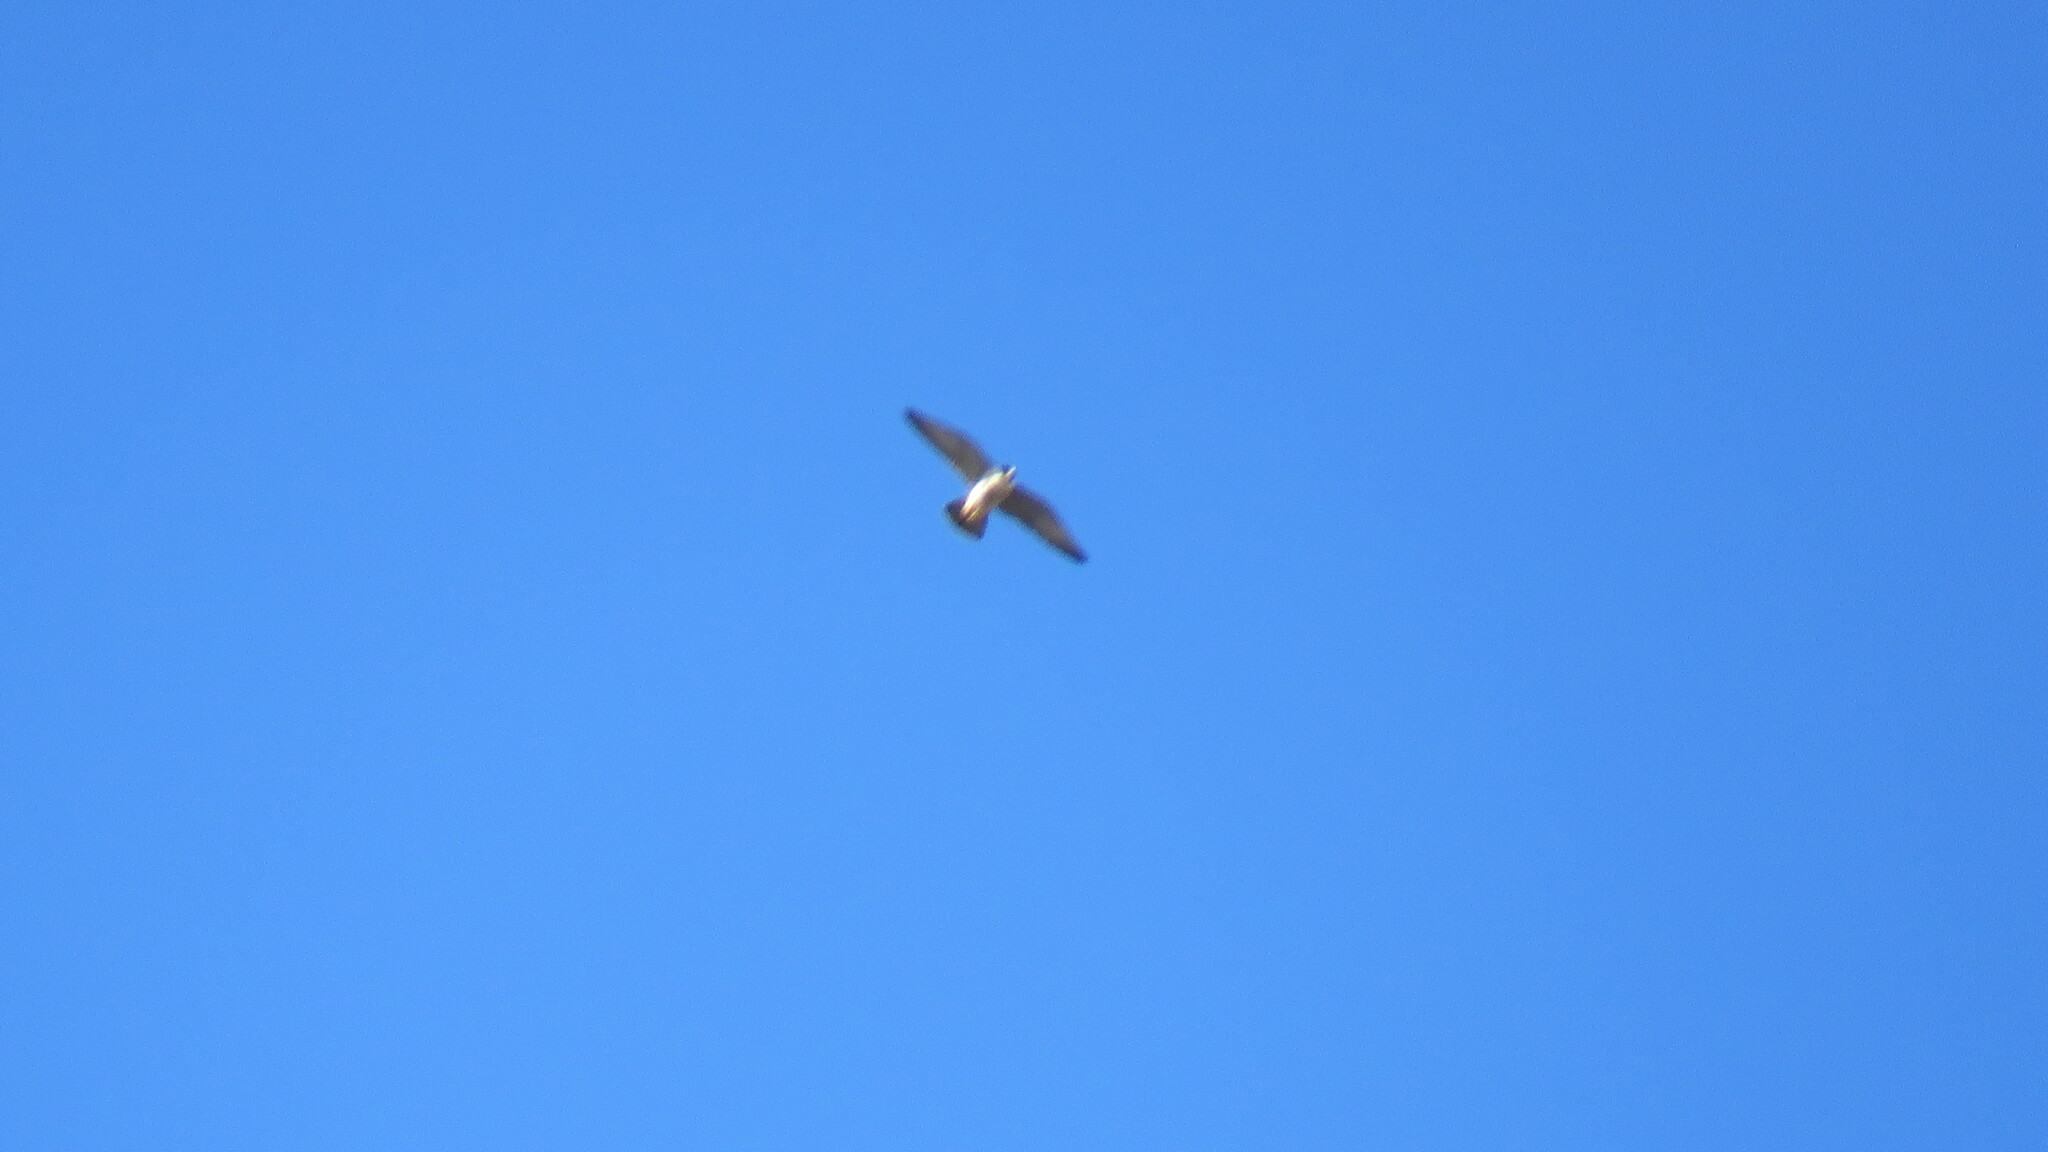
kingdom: Animalia
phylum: Chordata
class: Aves
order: Falconiformes
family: Falconidae
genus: Falco
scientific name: Falco peregrinus
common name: Peregrine falcon
